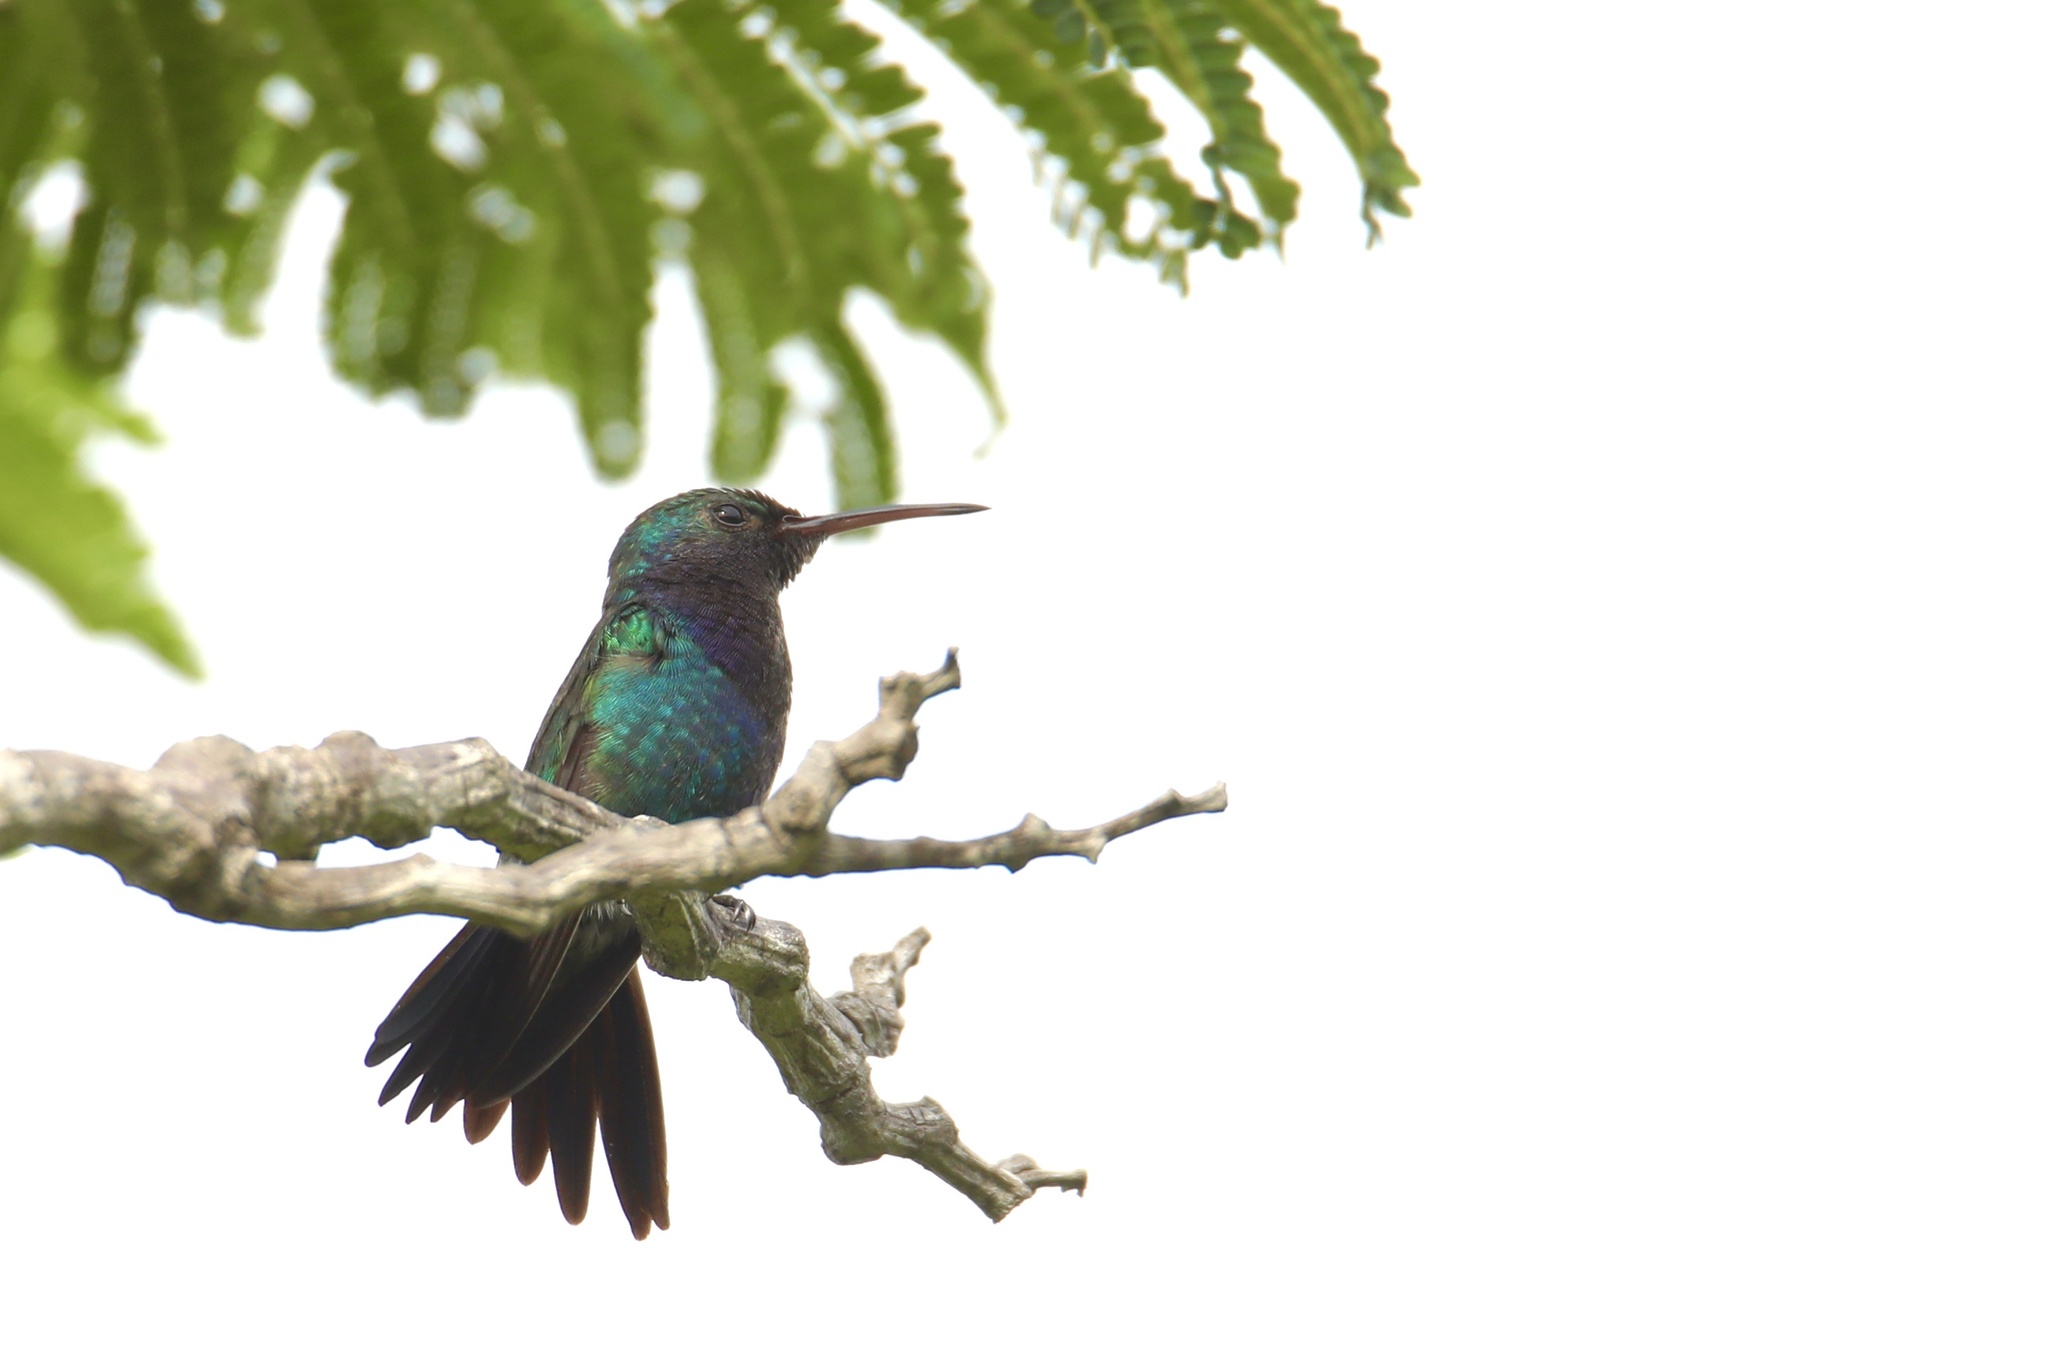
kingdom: Animalia
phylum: Chordata
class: Aves
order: Apodiformes
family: Trochilidae
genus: Chrysuronia
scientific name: Chrysuronia coeruleogularis
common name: Sapphire-throated hummingbird
